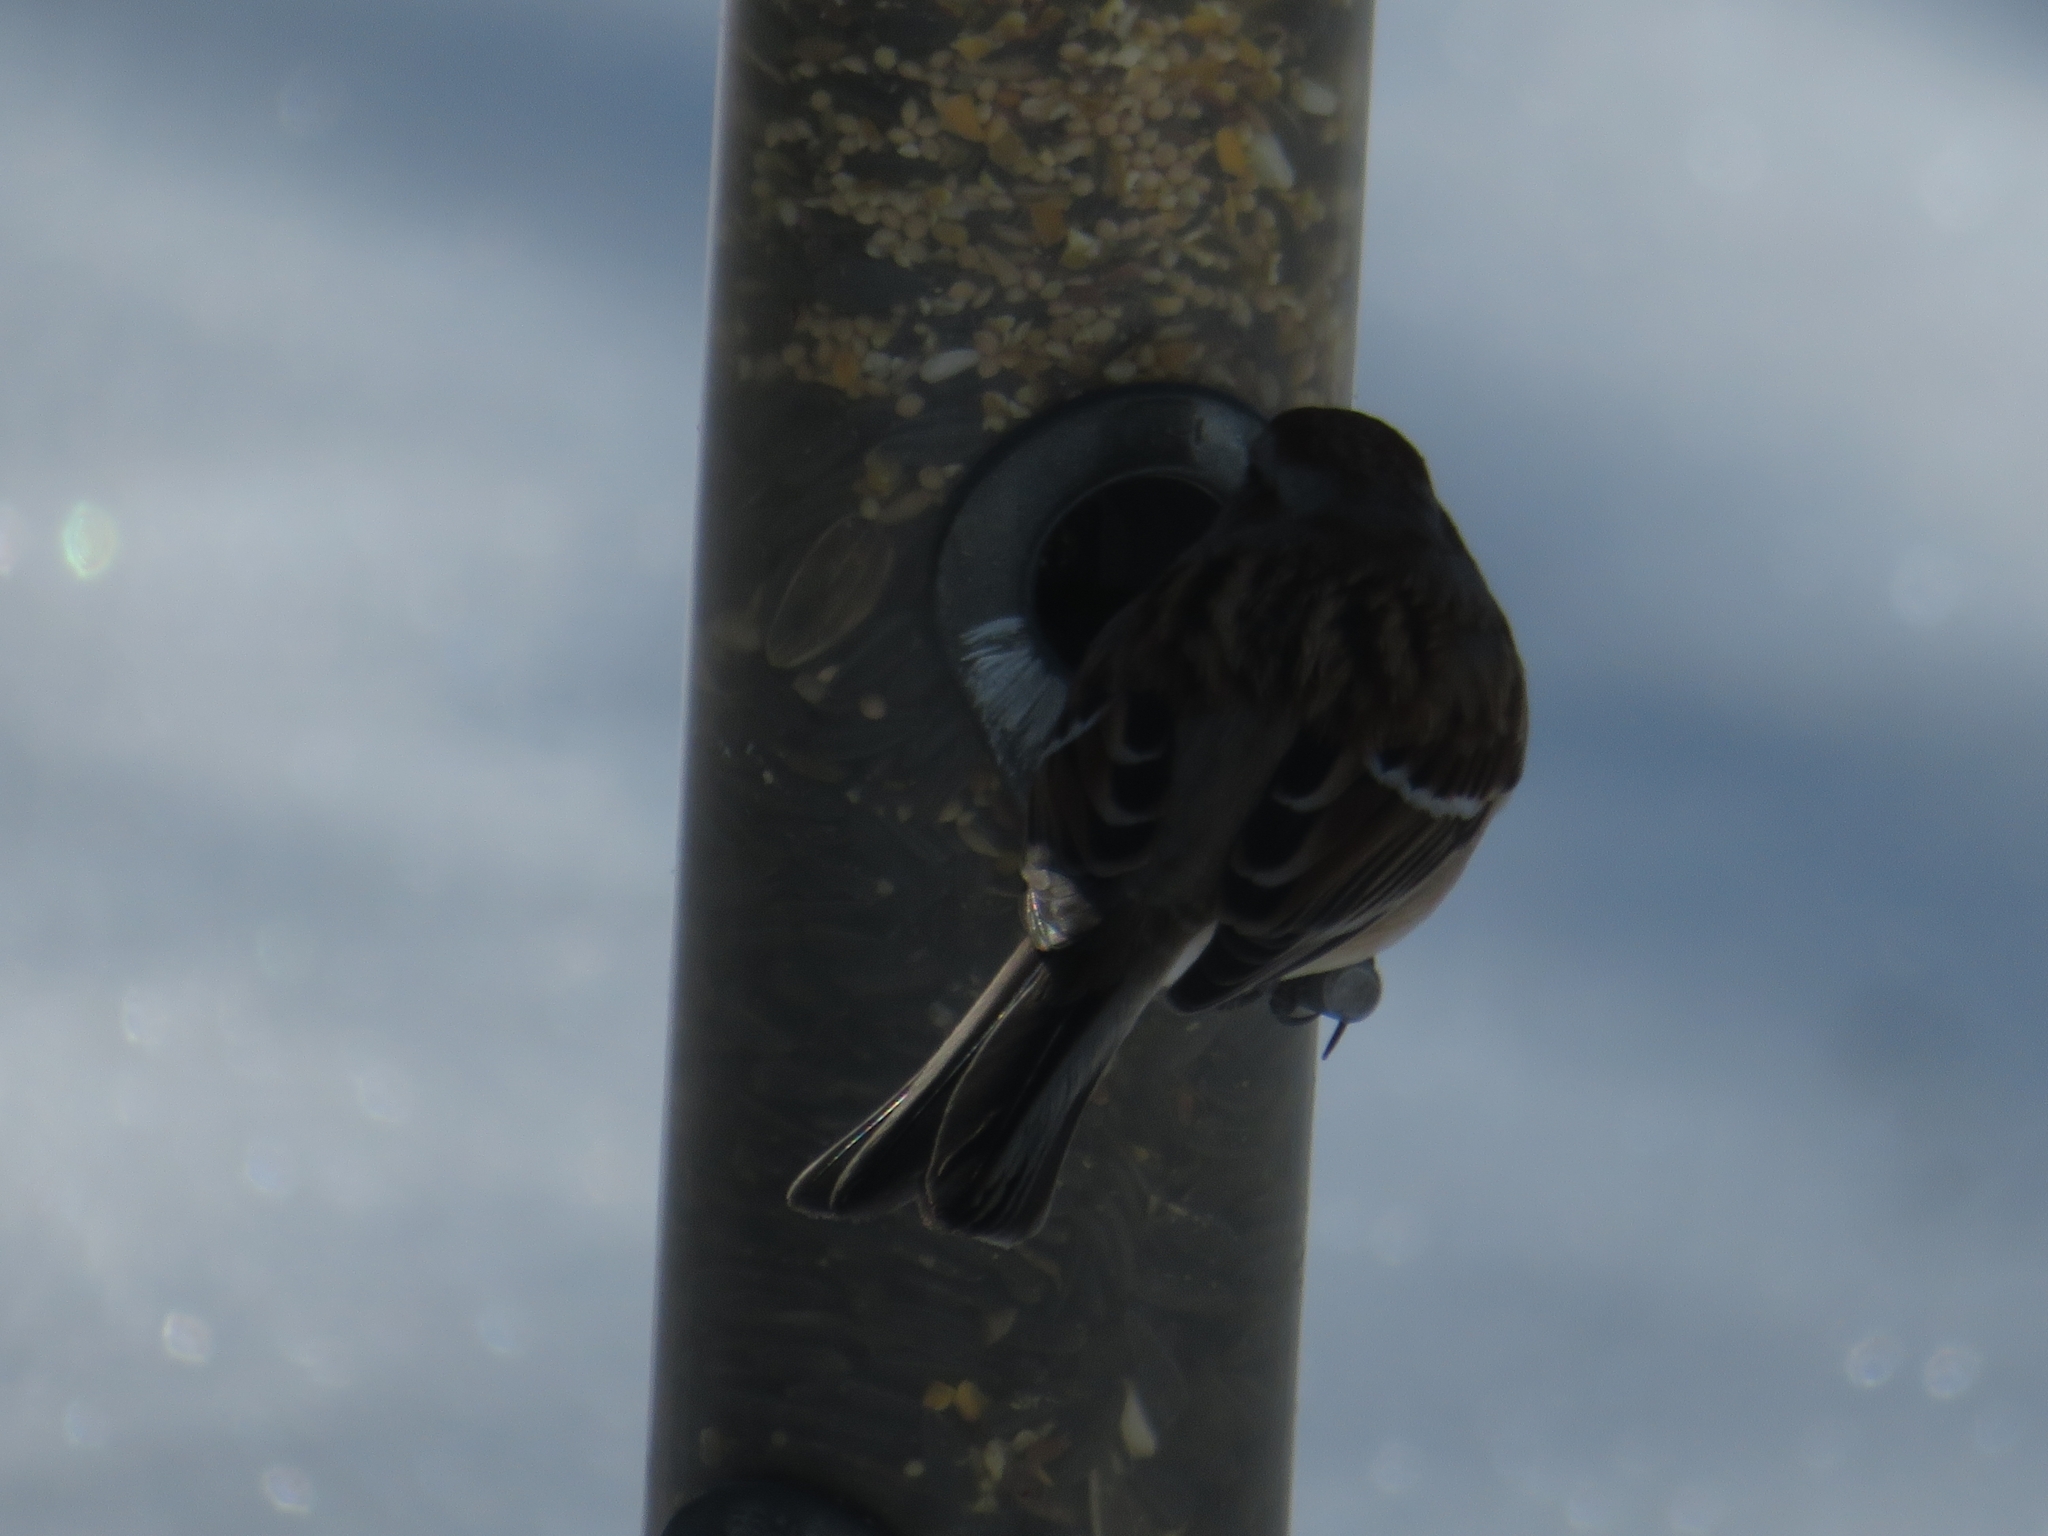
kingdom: Animalia
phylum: Chordata
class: Aves
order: Passeriformes
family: Passerellidae
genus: Spizelloides
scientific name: Spizelloides arborea
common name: American tree sparrow
